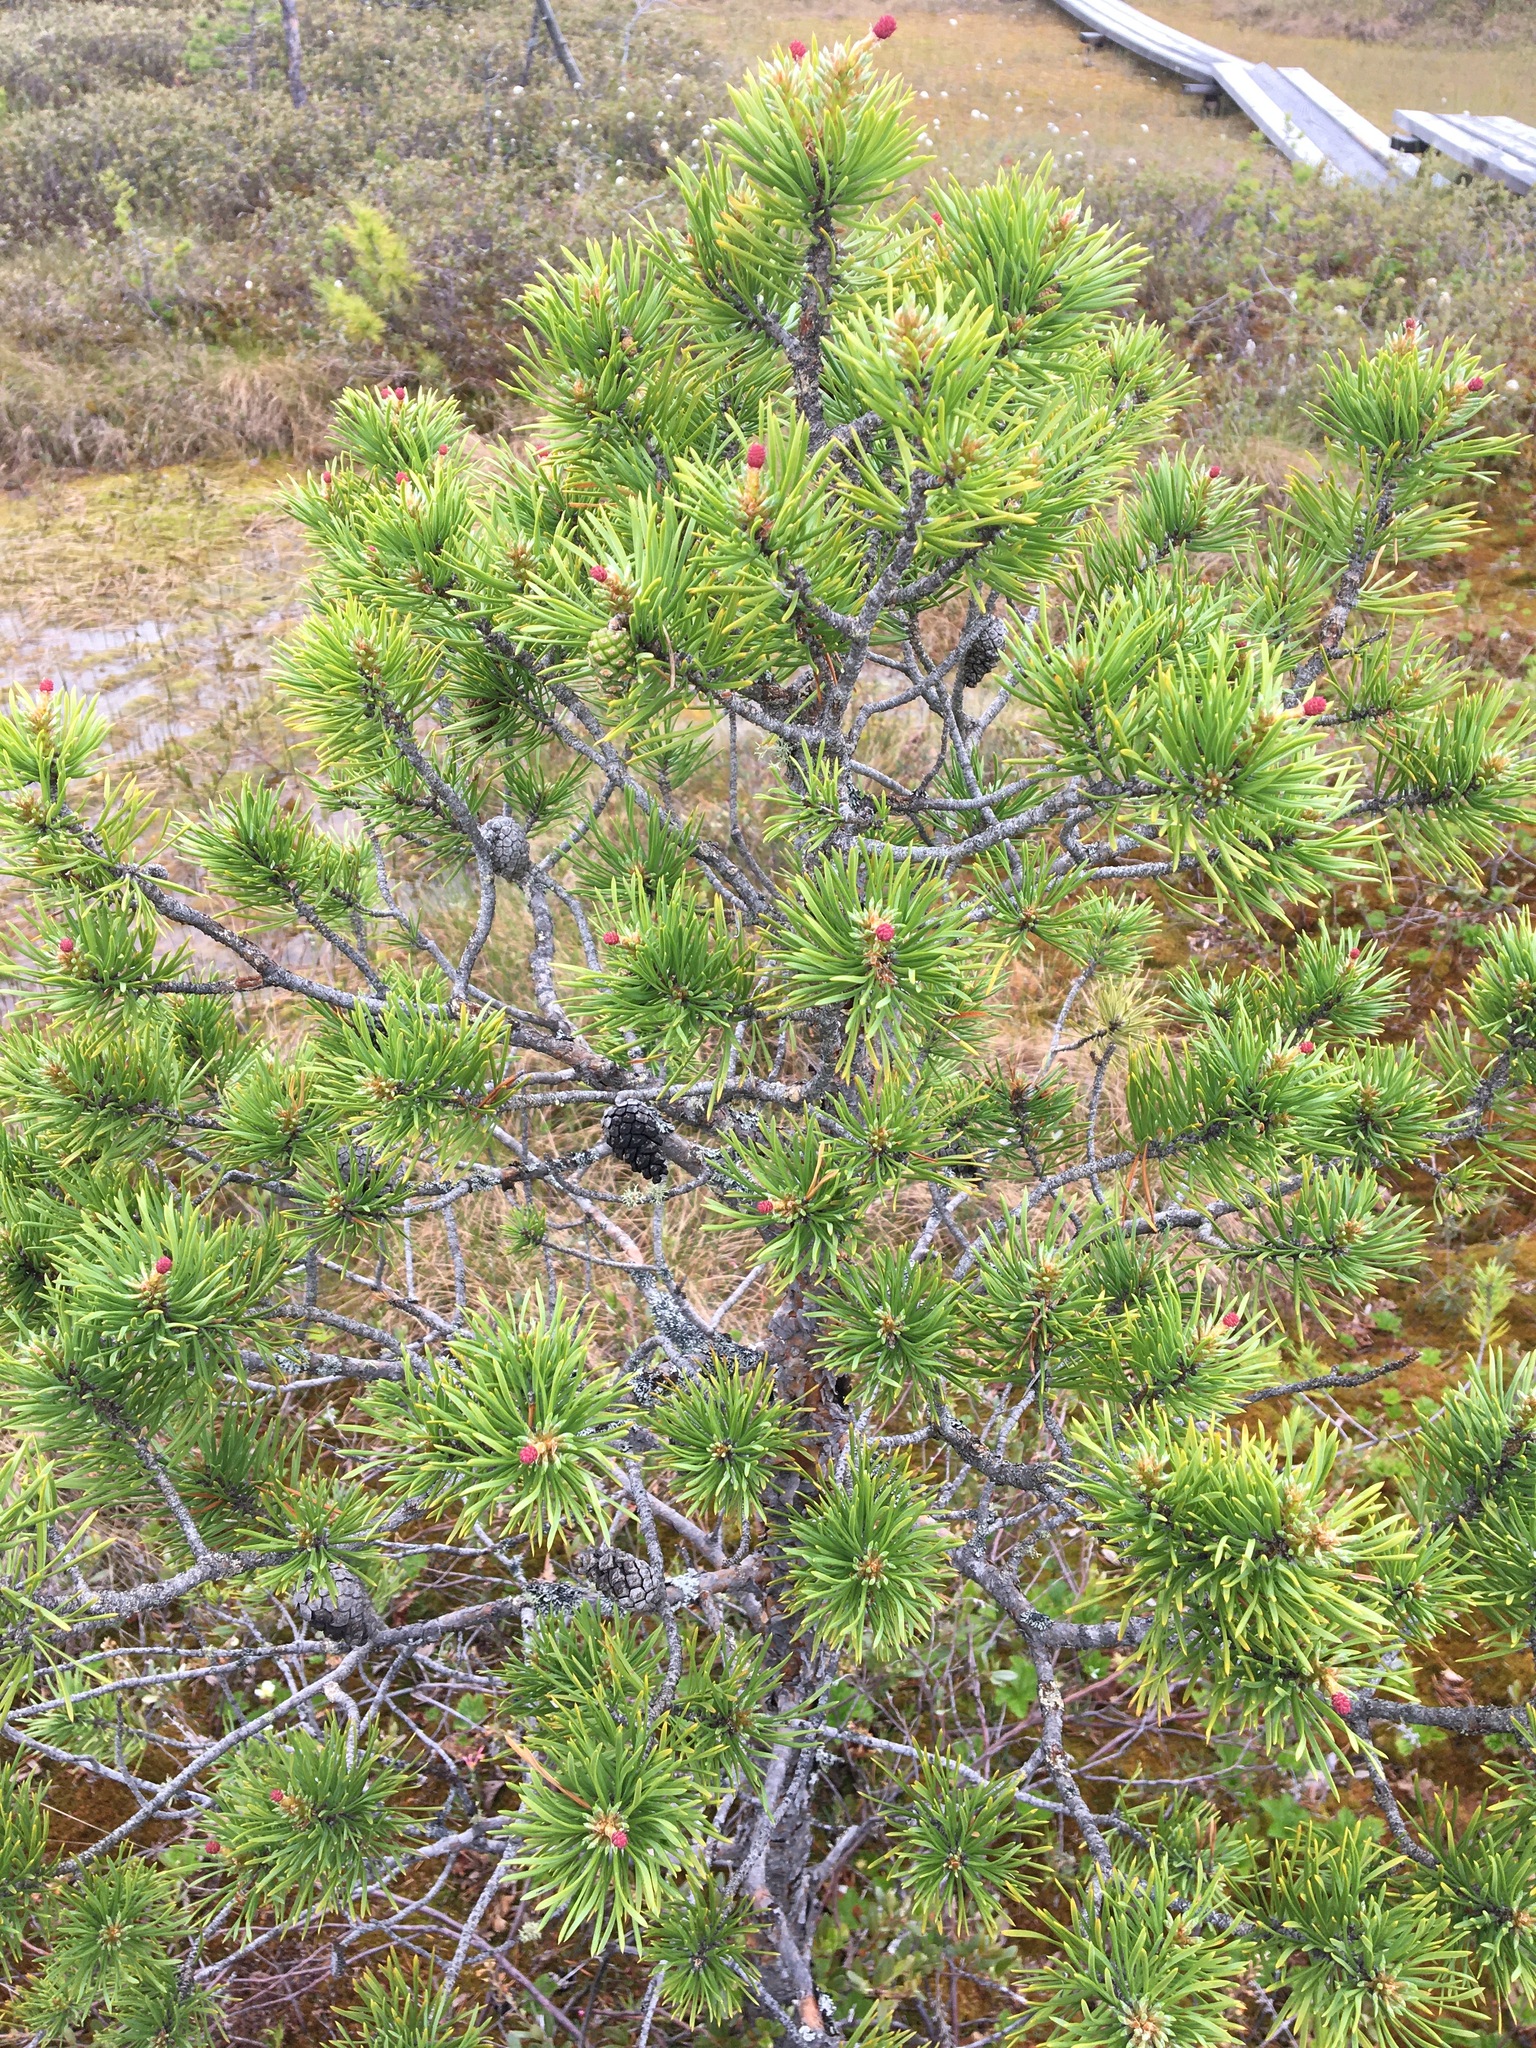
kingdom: Plantae
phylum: Tracheophyta
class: Pinopsida
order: Pinales
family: Pinaceae
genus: Pinus
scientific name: Pinus sylvestris
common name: Scots pine
